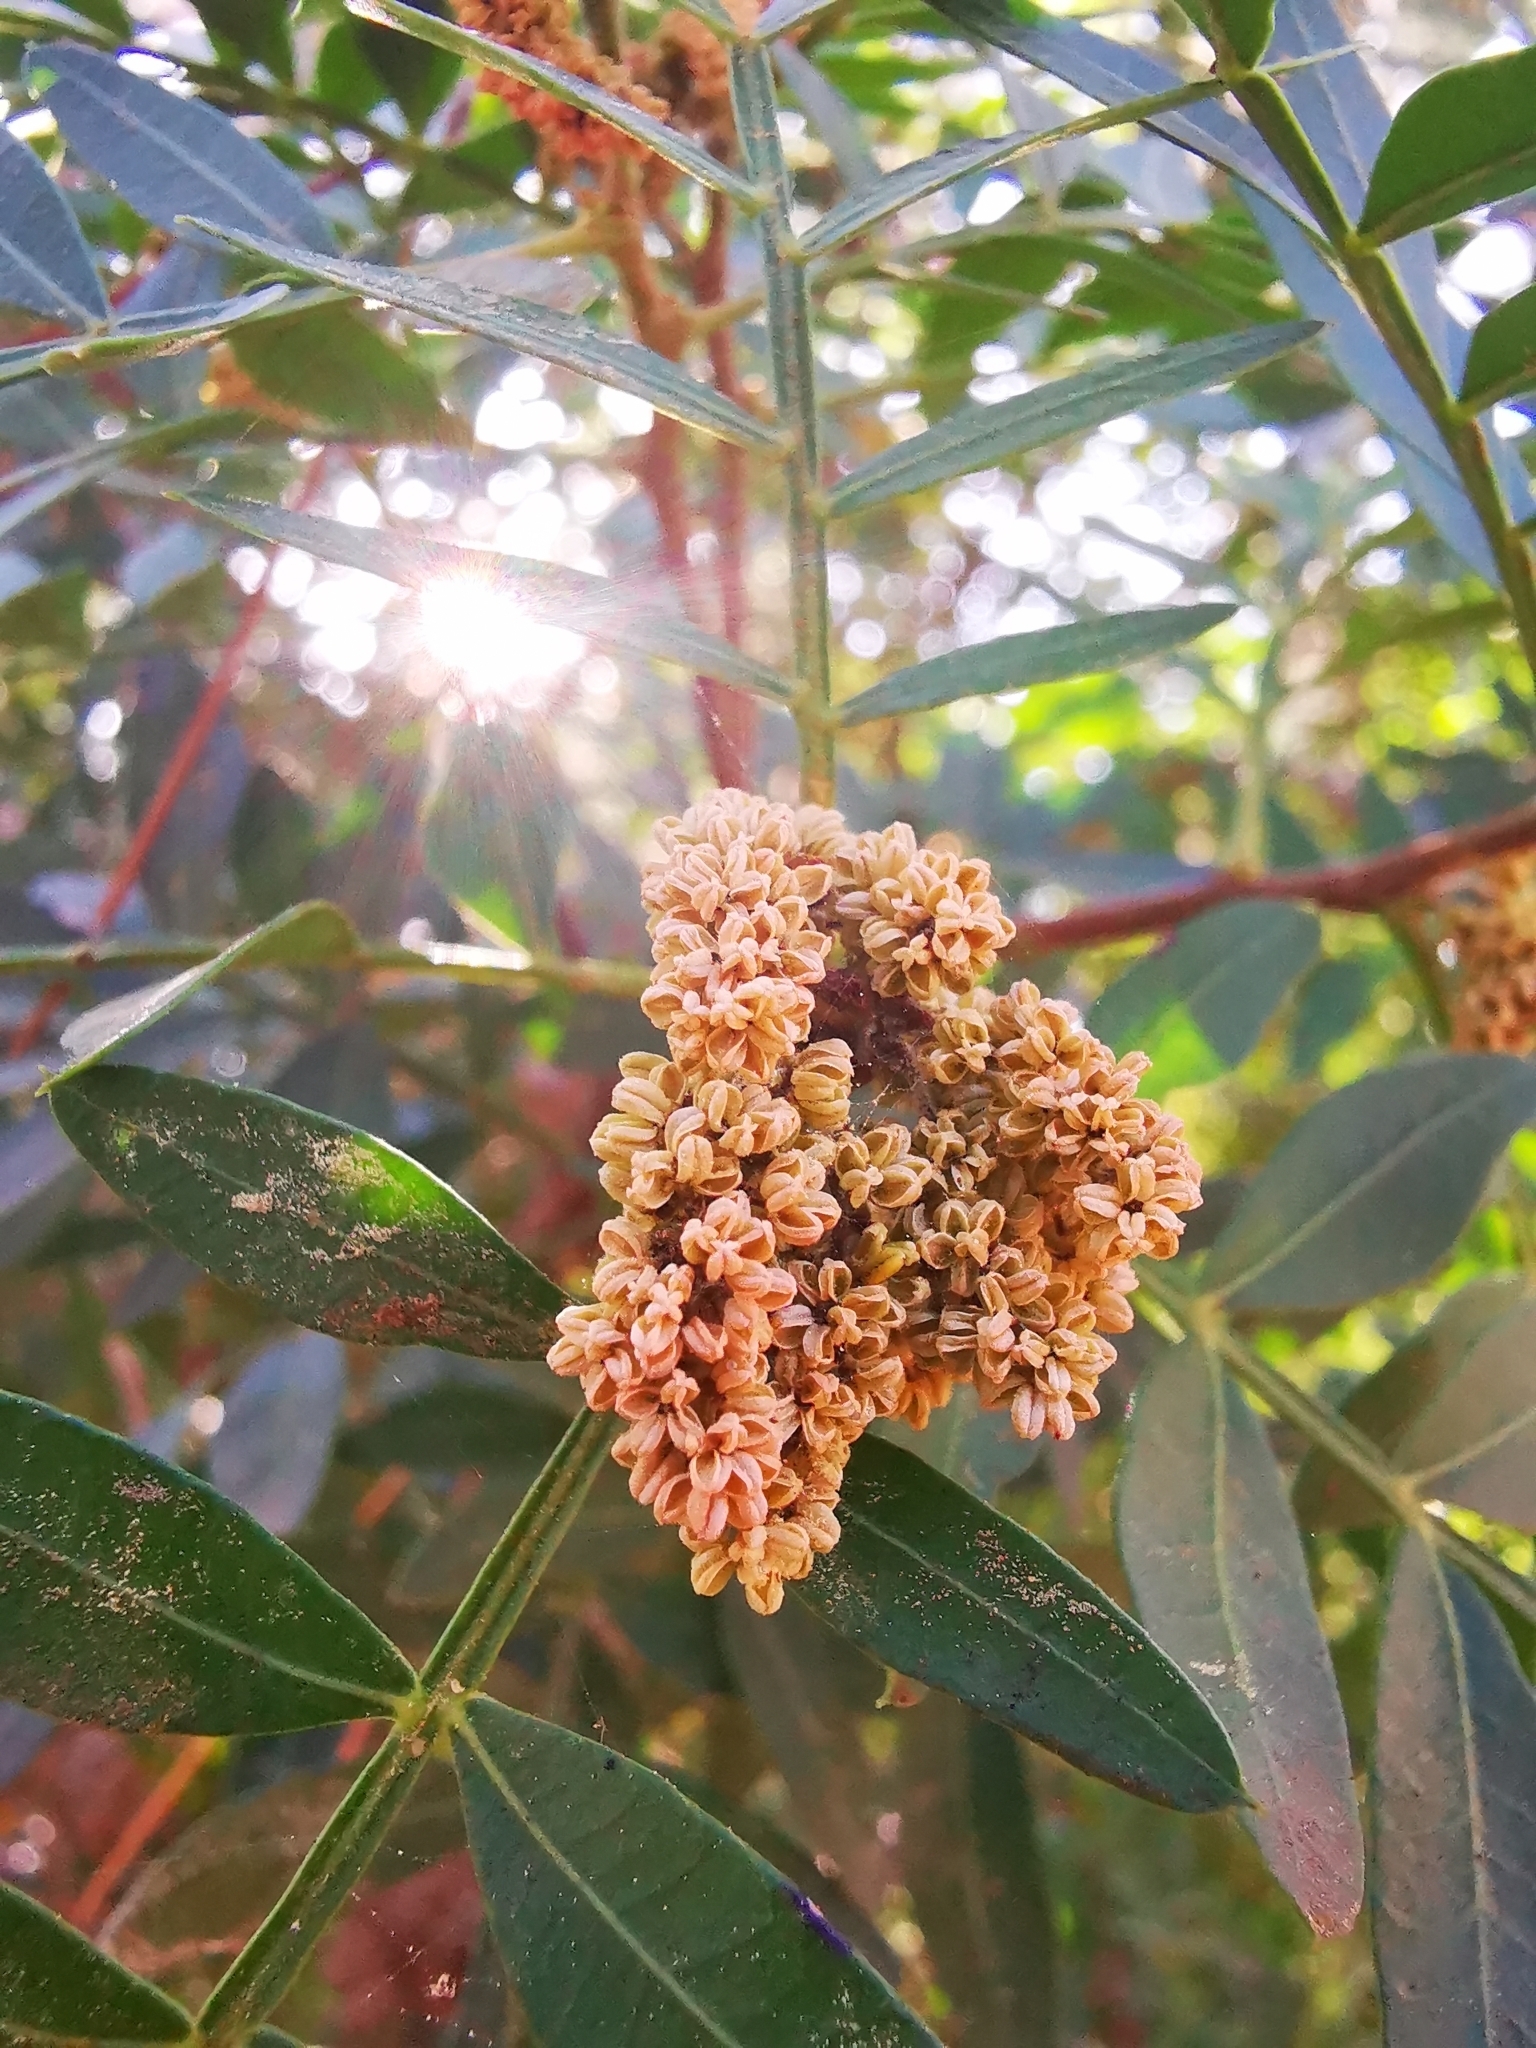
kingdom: Plantae
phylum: Tracheophyta
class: Magnoliopsida
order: Sapindales
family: Anacardiaceae
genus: Pistacia
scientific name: Pistacia lentiscus
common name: Lentisk
